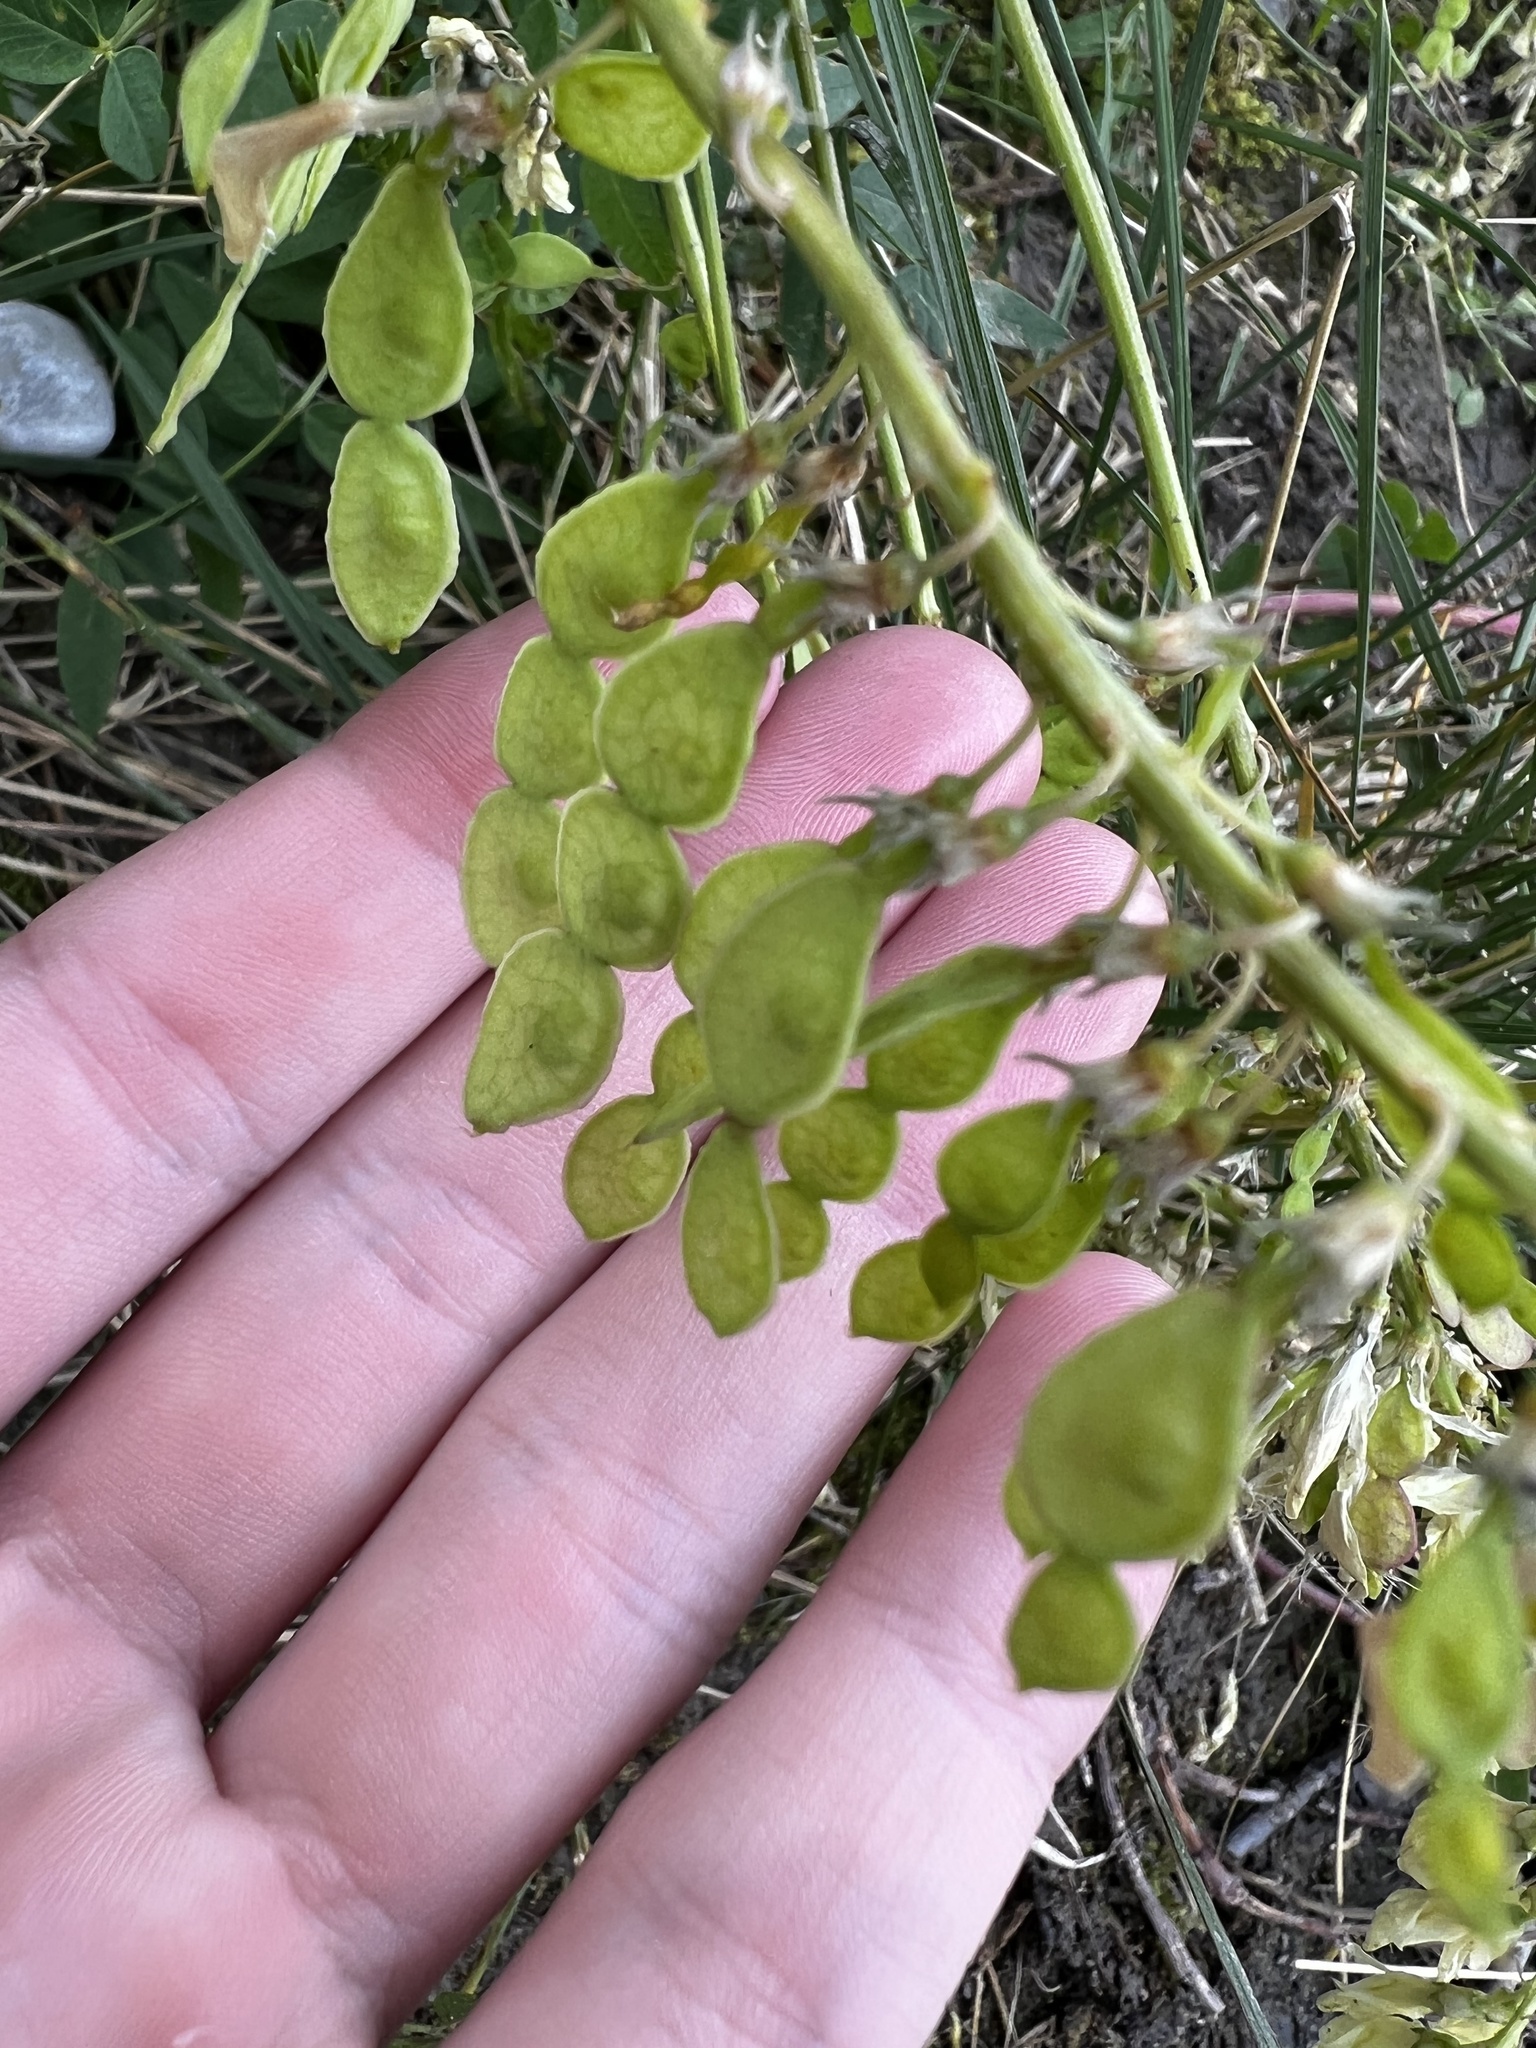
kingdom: Plantae
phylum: Tracheophyta
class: Magnoliopsida
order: Fabales
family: Fabaceae
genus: Hedysarum
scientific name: Hedysarum sulphurescens
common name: Sulphur hedysarum
